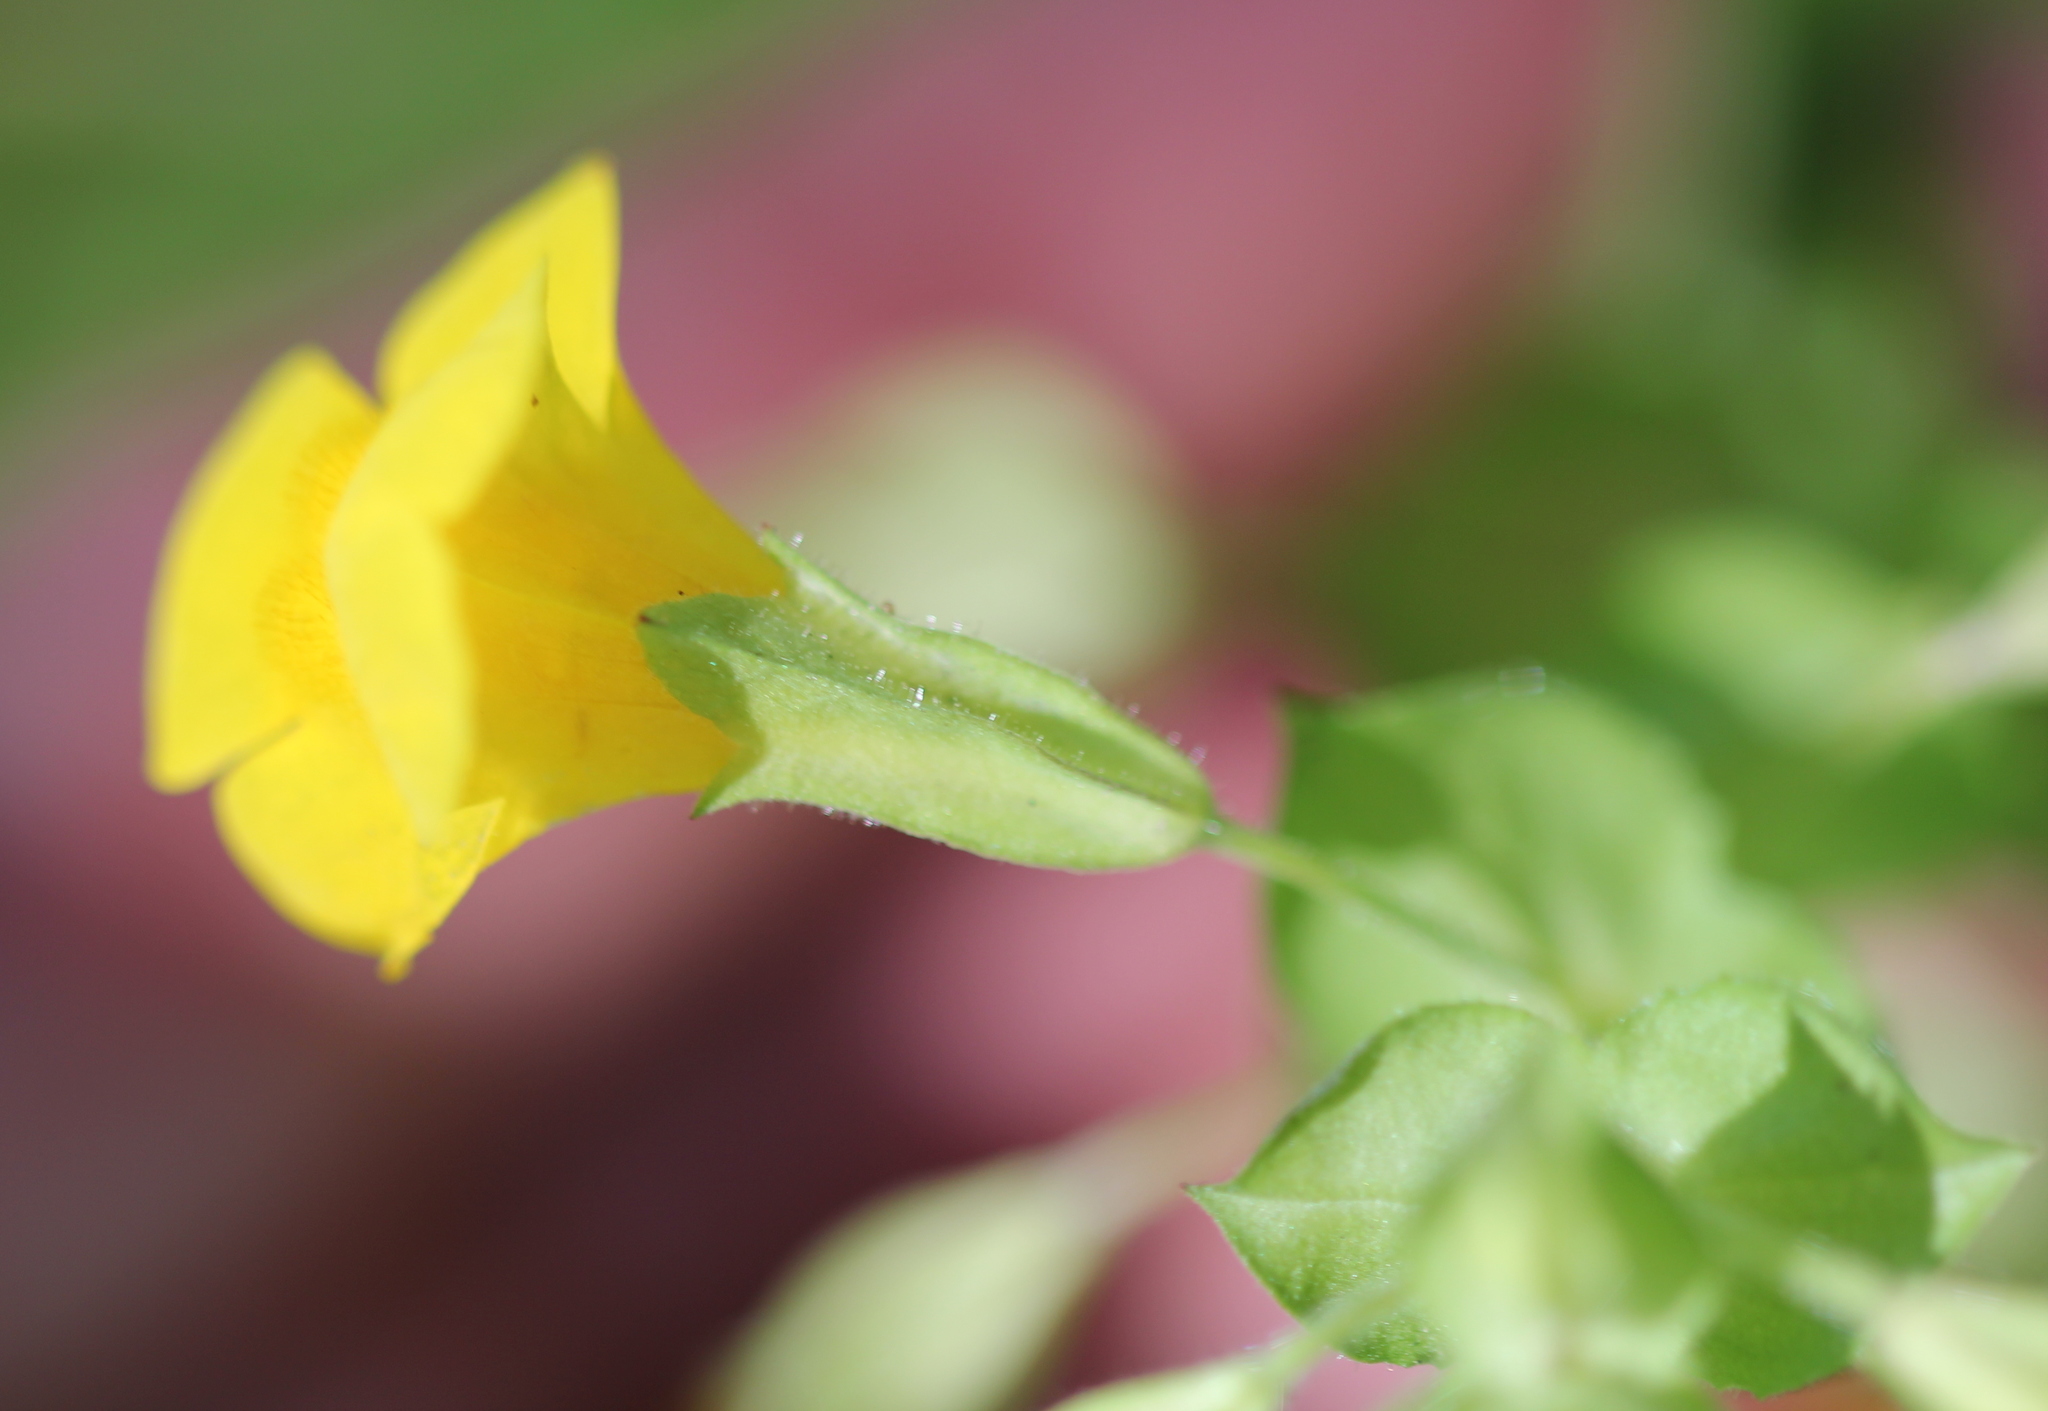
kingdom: Plantae
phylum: Tracheophyta
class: Magnoliopsida
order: Lamiales
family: Phrymaceae
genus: Erythranthe
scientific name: Erythranthe guttata
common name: Monkeyflower
